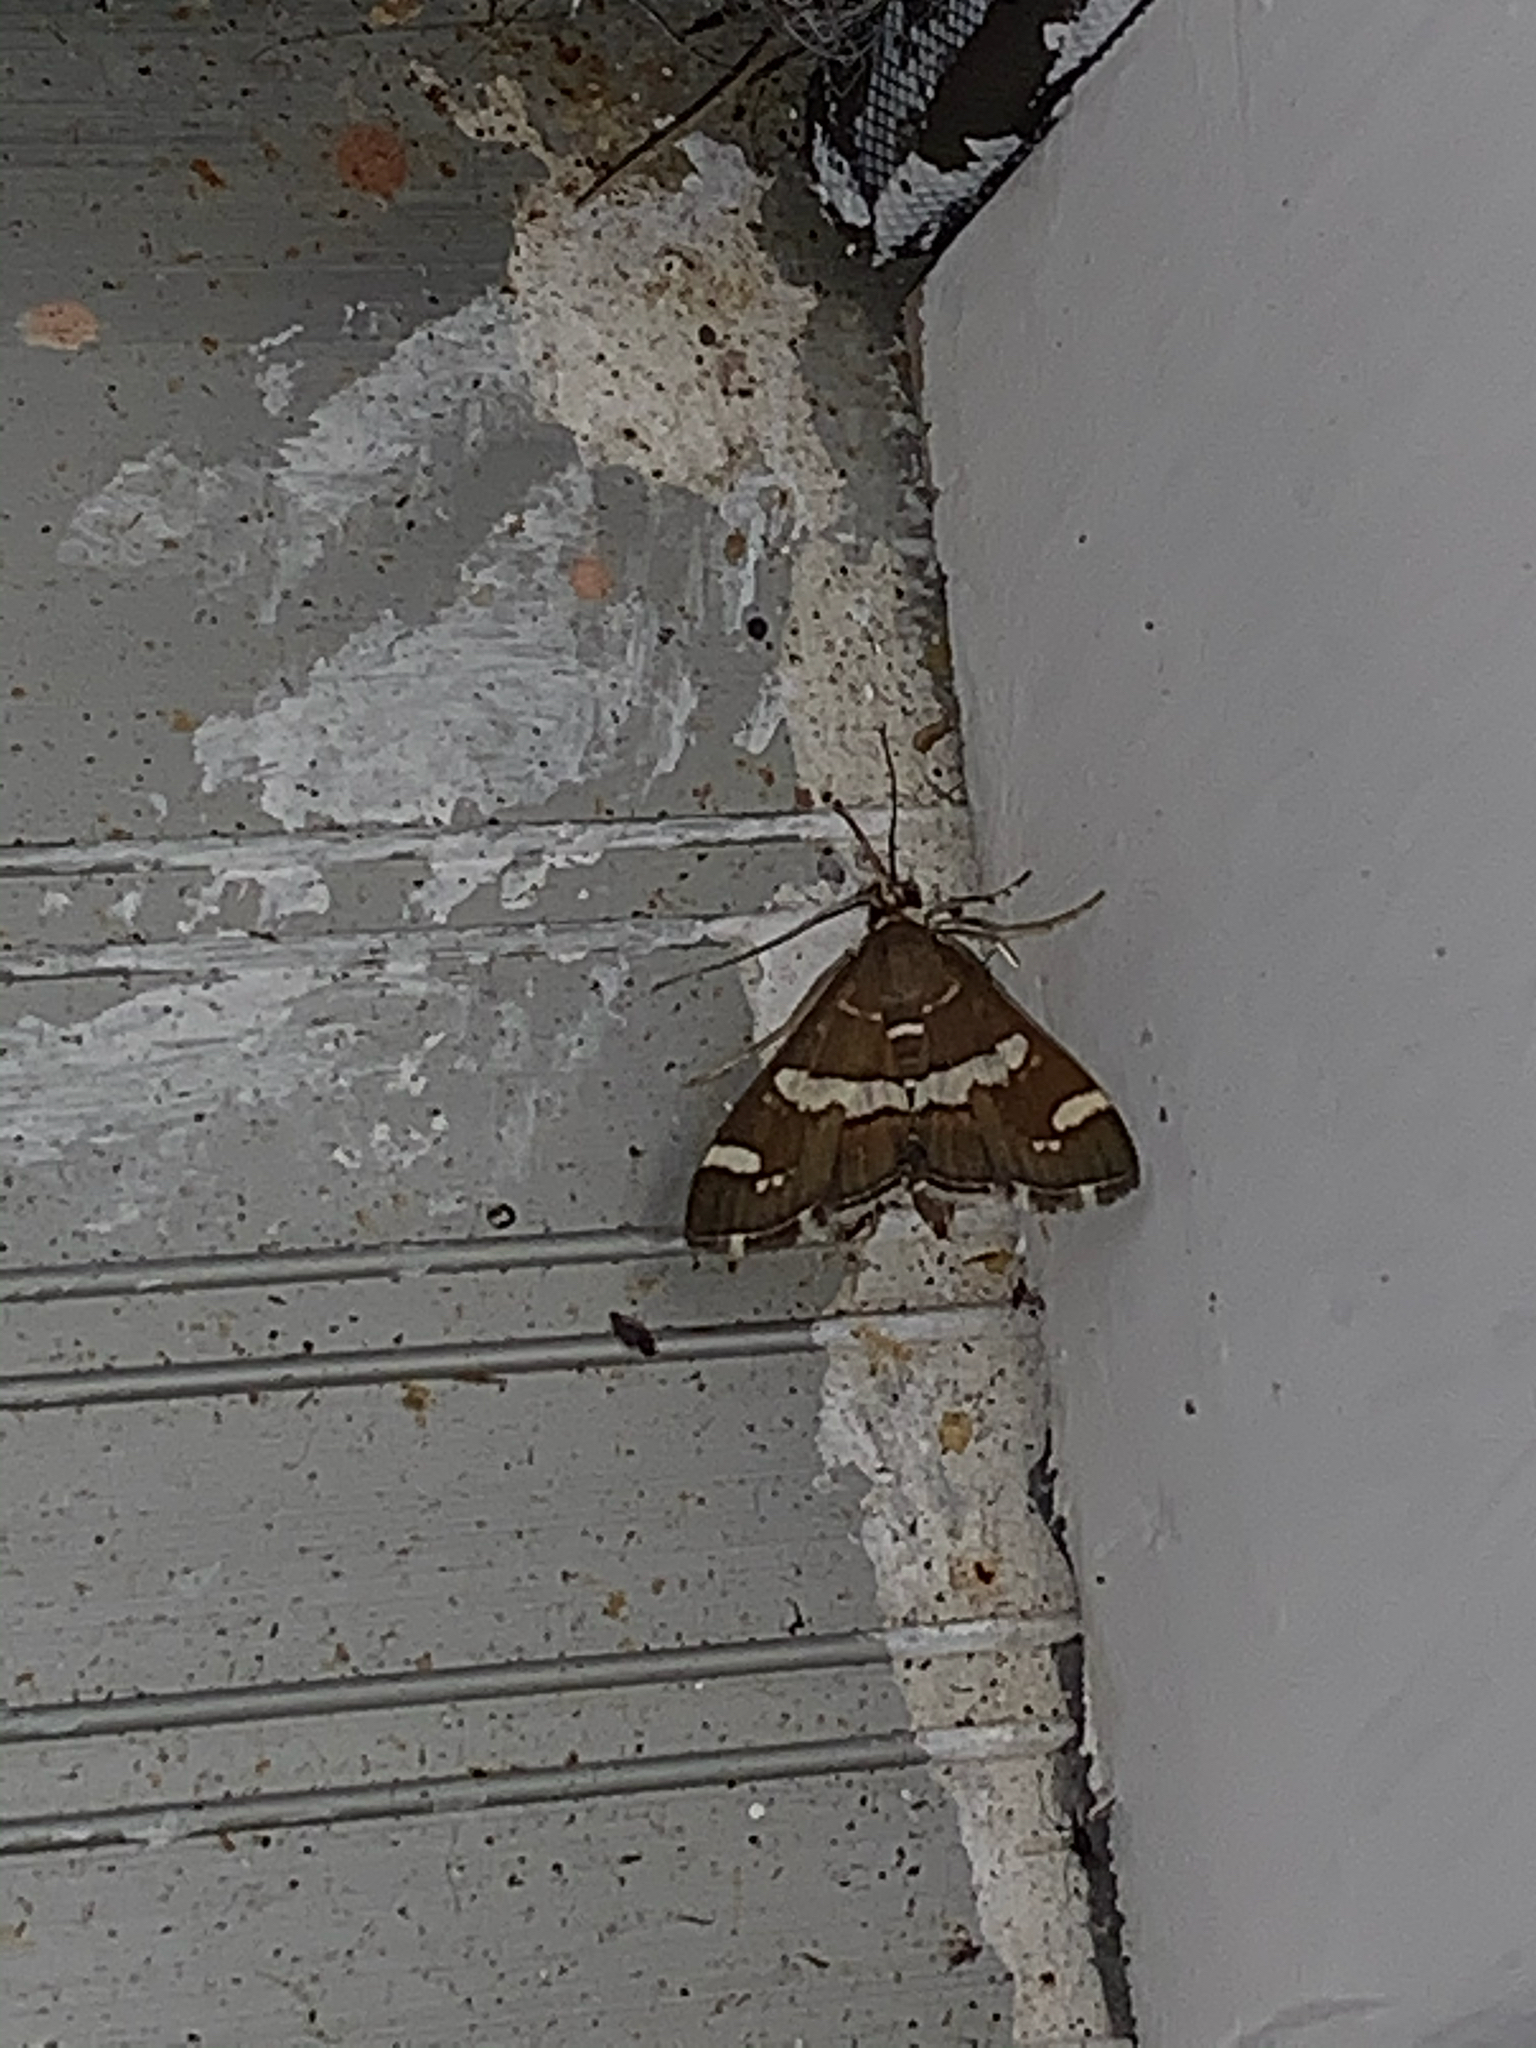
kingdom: Animalia
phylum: Arthropoda
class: Insecta
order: Lepidoptera
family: Crambidae
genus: Spoladea
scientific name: Spoladea recurvalis
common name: Beet webworm moth
